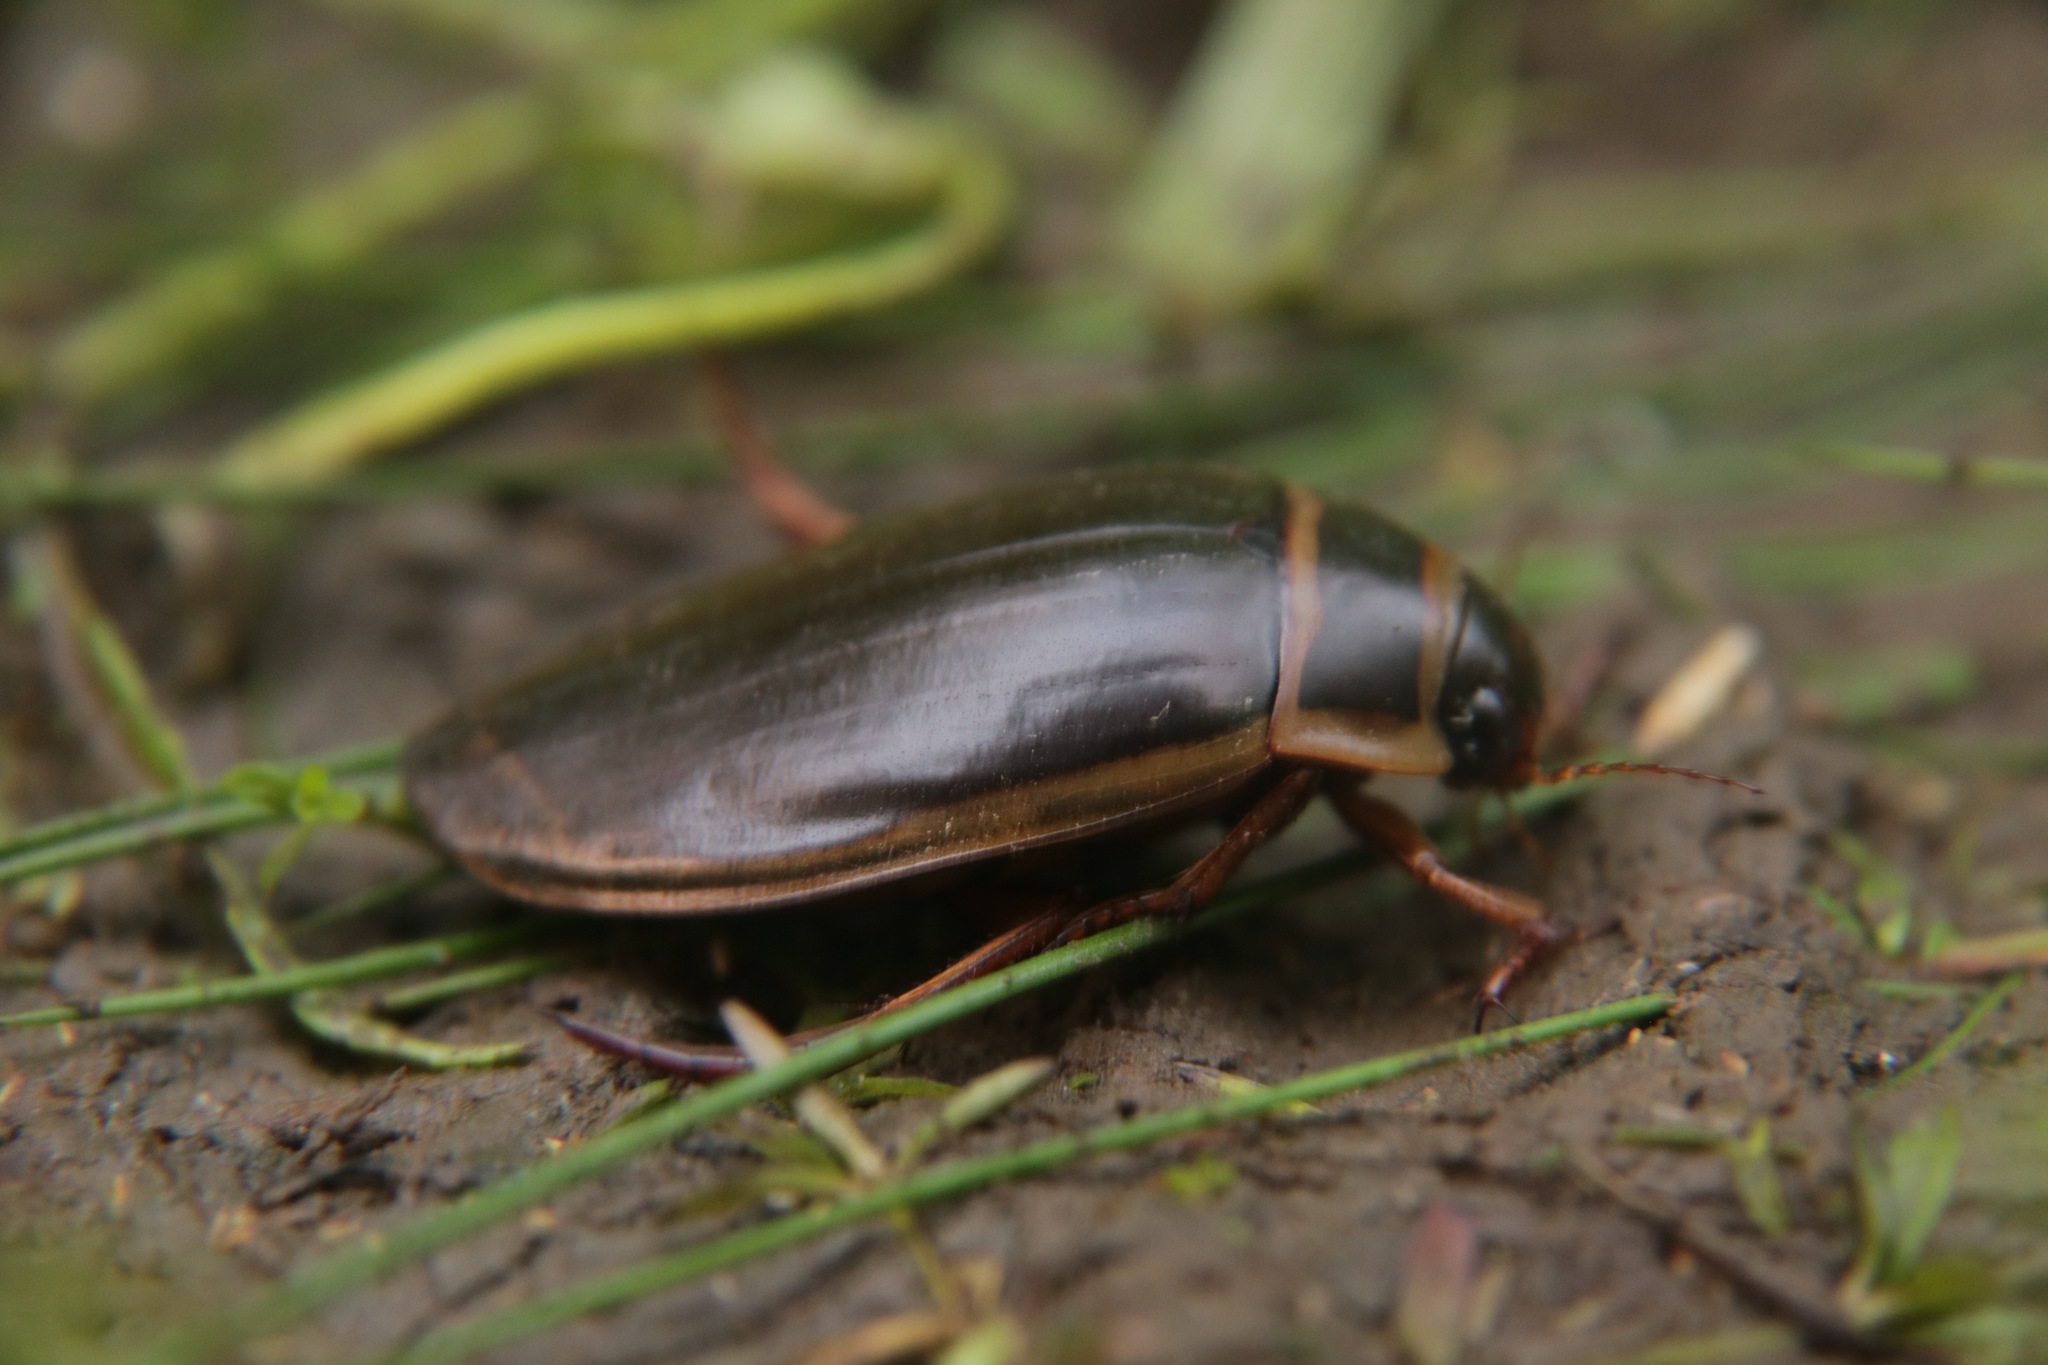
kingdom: Animalia
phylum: Arthropoda
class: Insecta
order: Coleoptera
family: Dytiscidae
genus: Dytiscus
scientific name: Dytiscus marginalis
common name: Great water beetle
